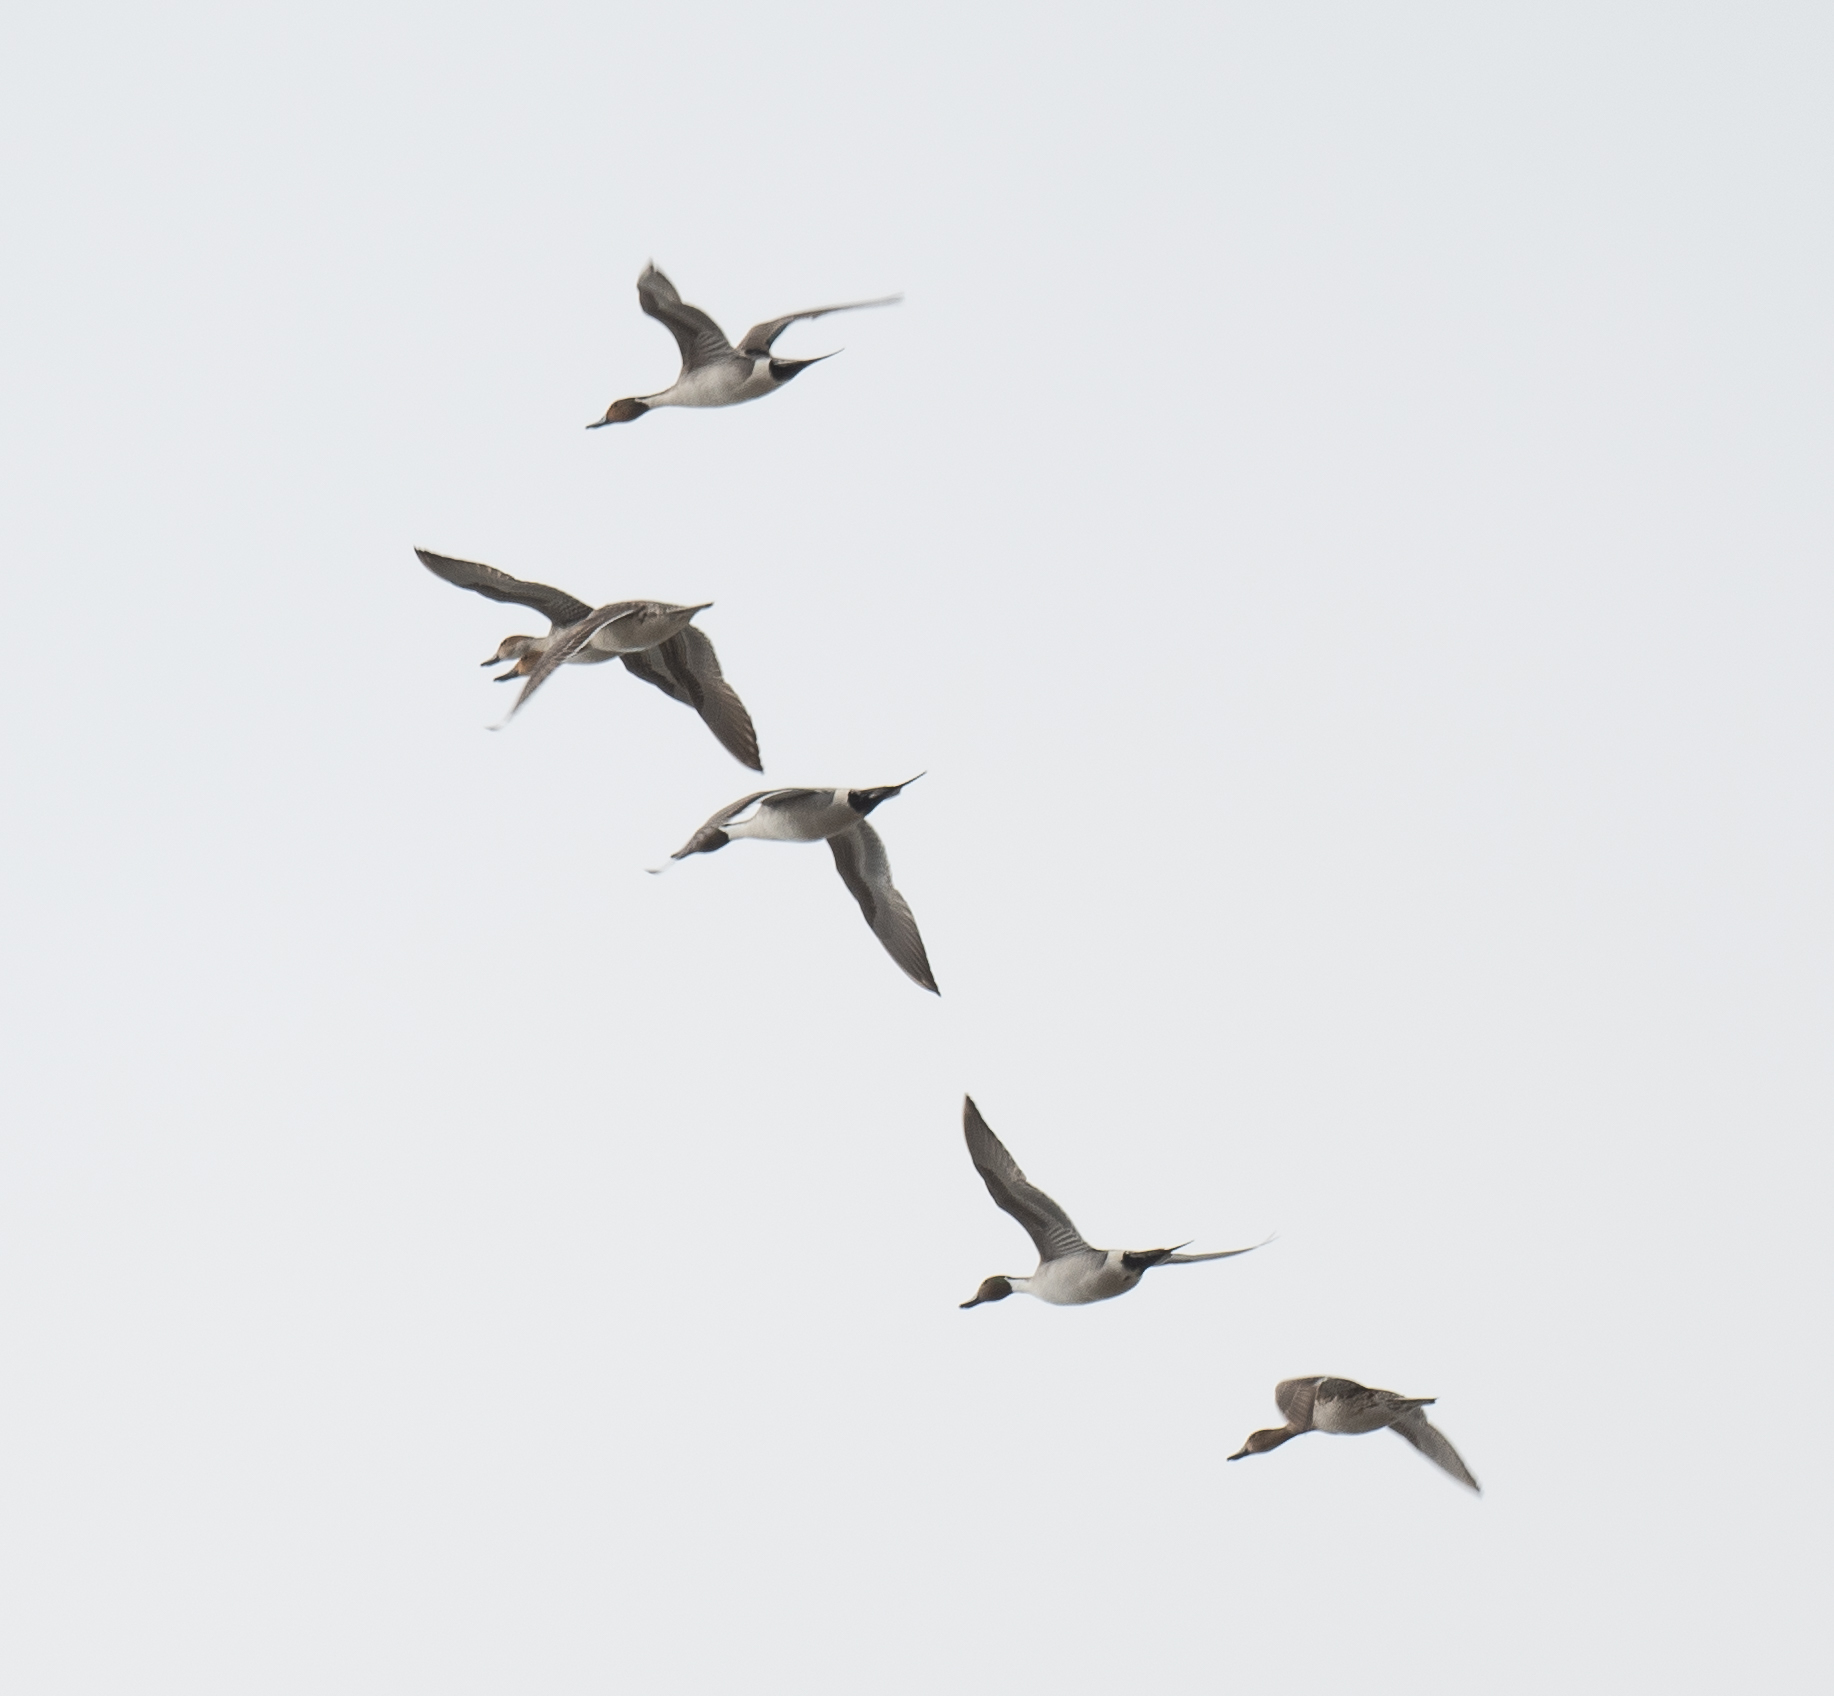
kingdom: Animalia
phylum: Chordata
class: Aves
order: Anseriformes
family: Anatidae
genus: Anas
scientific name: Anas acuta
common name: Northern pintail
